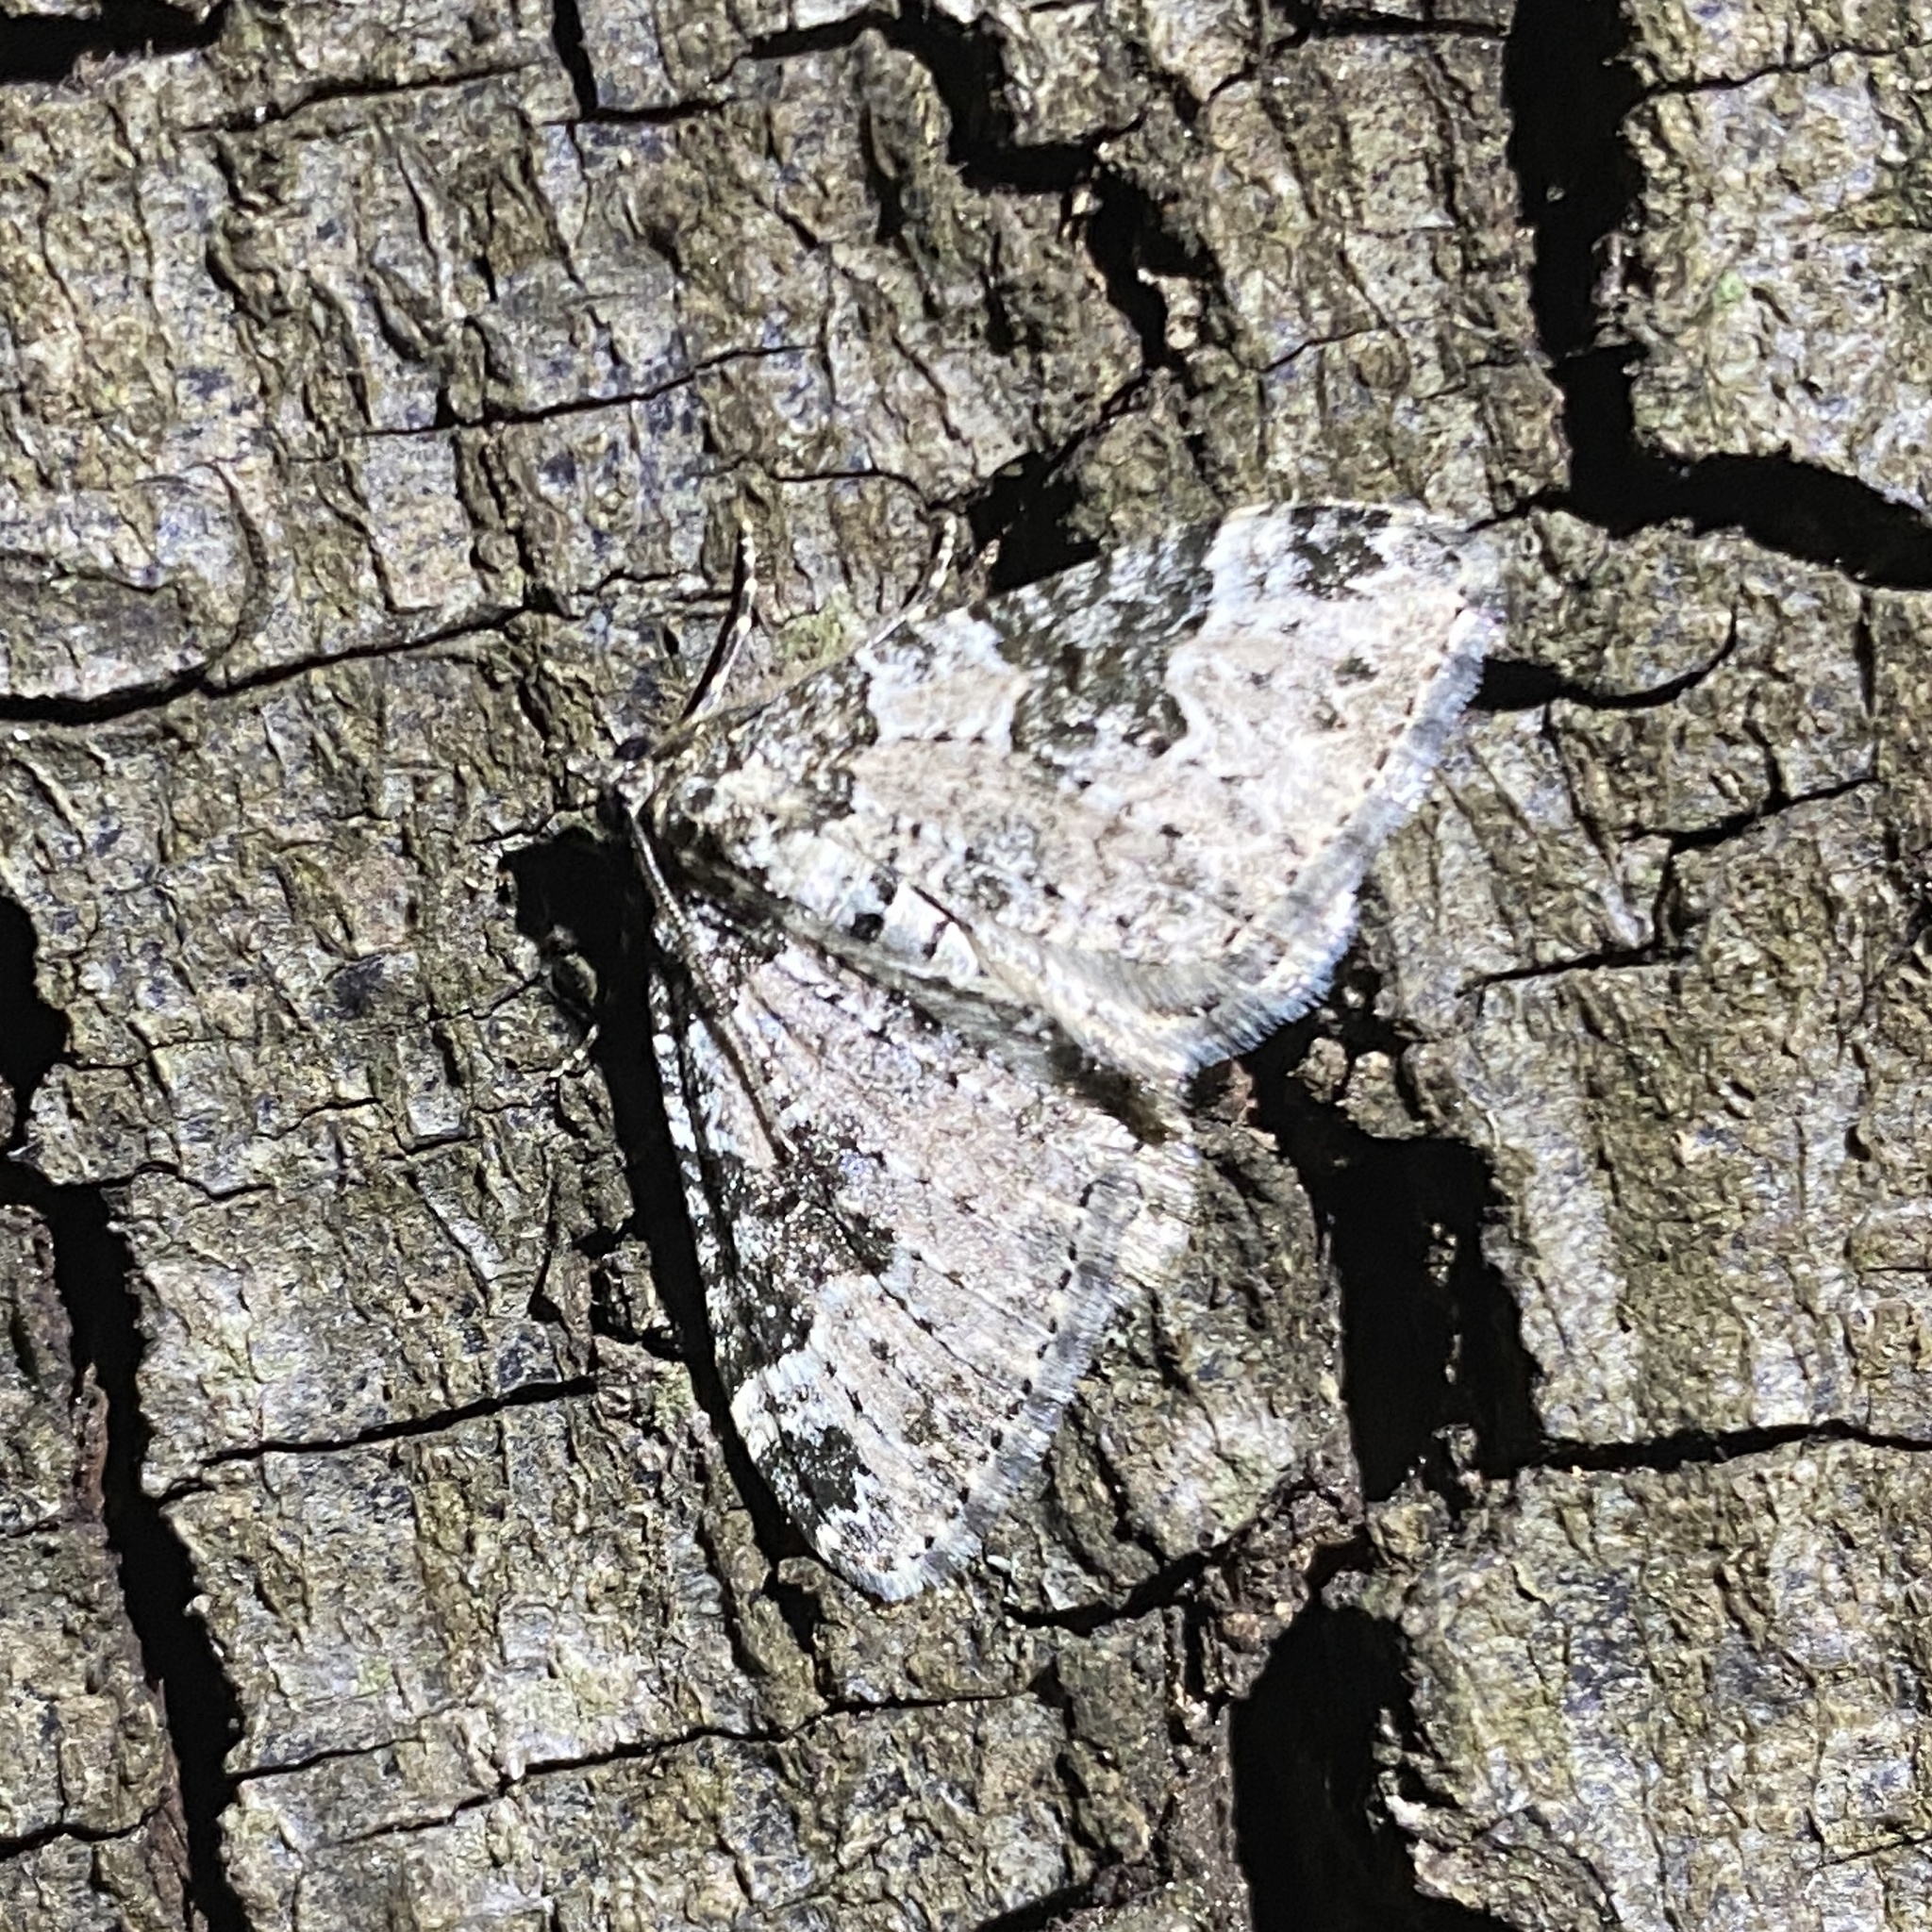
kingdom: Animalia
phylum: Arthropoda
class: Insecta
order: Lepidoptera
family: Geometridae
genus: Xanthorhoe
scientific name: Xanthorhoe fluctuata
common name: Garden carpet
